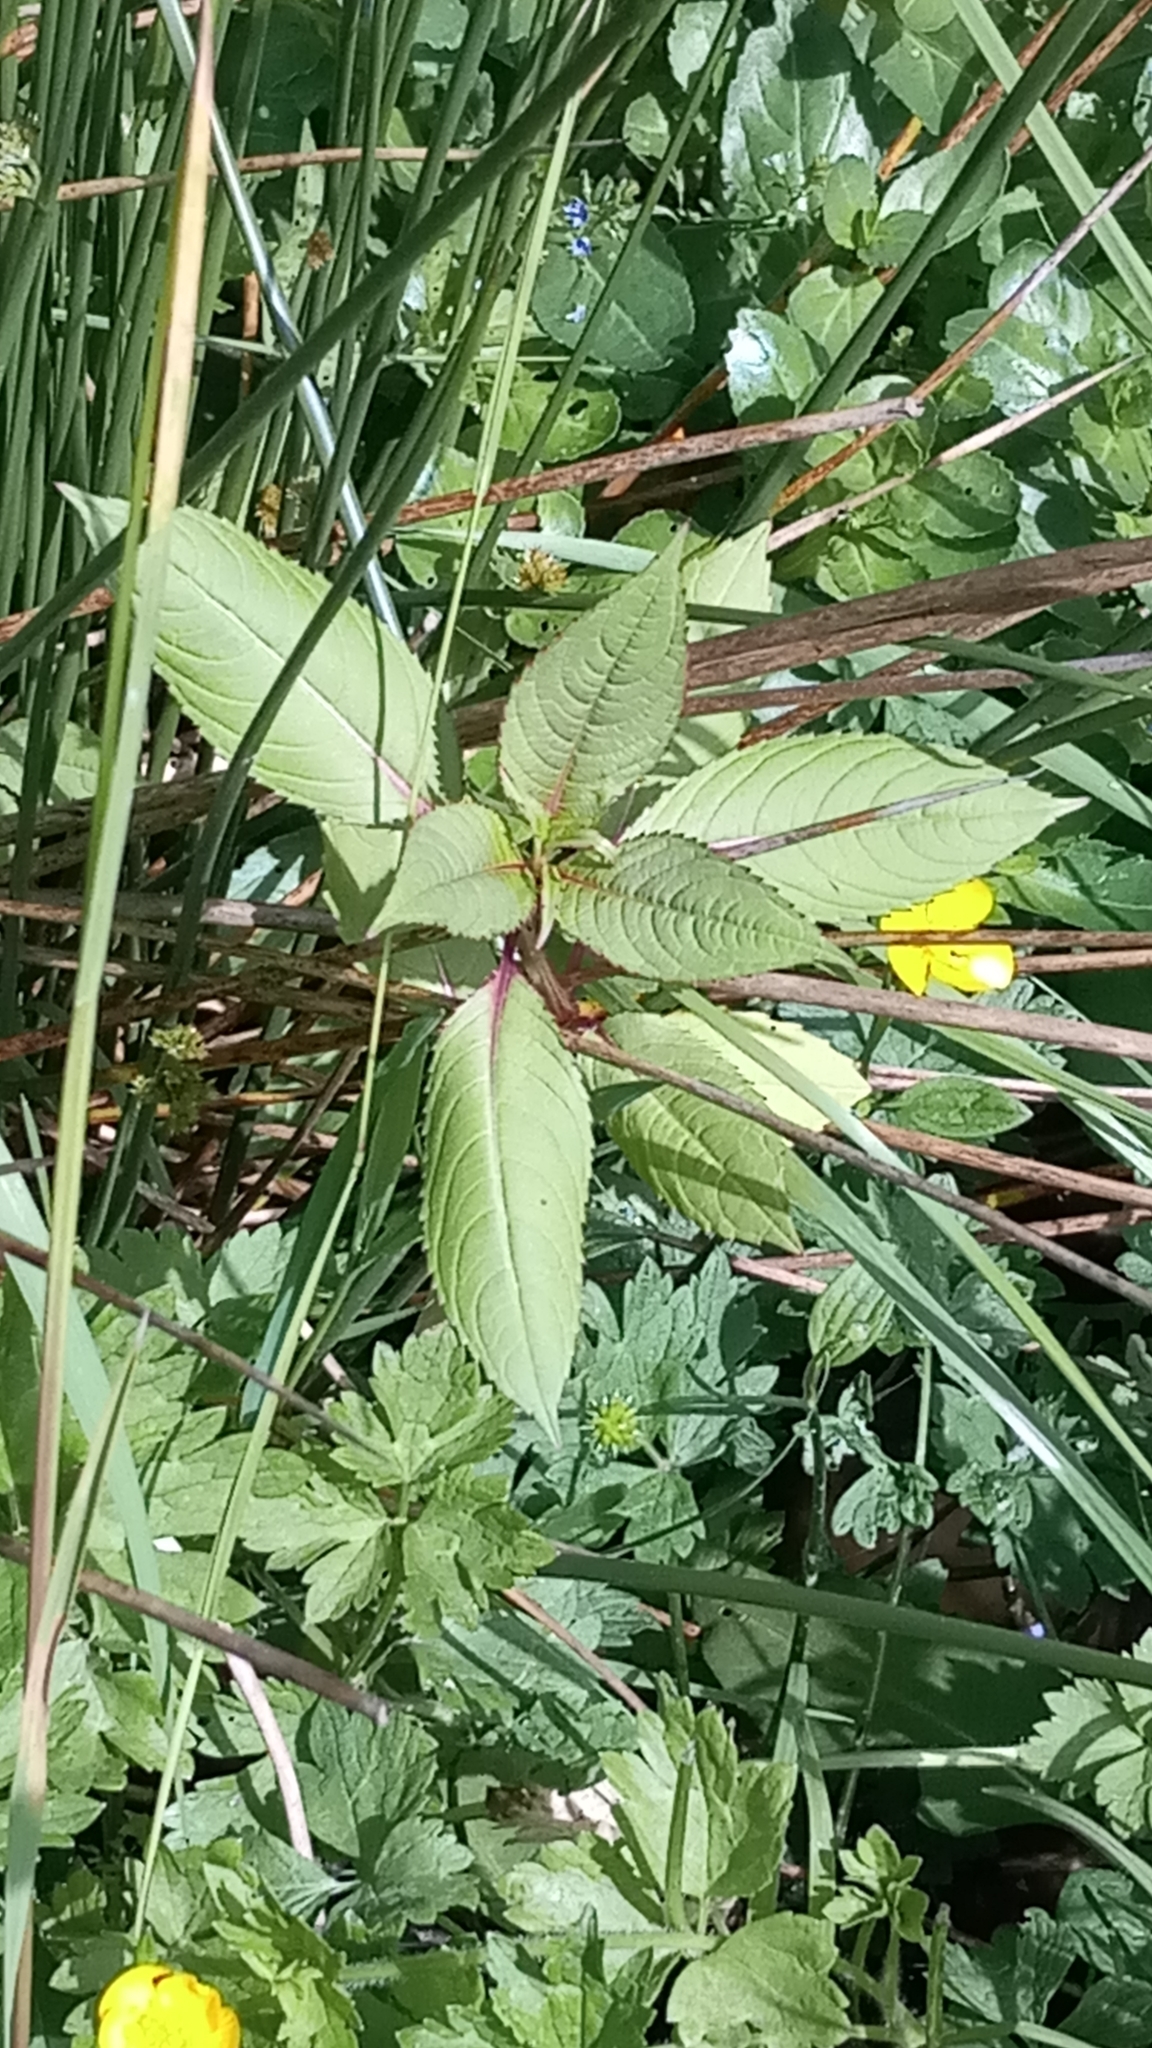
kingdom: Plantae
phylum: Tracheophyta
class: Magnoliopsida
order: Ericales
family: Balsaminaceae
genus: Impatiens
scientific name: Impatiens glandulifera
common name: Himalayan balsam
